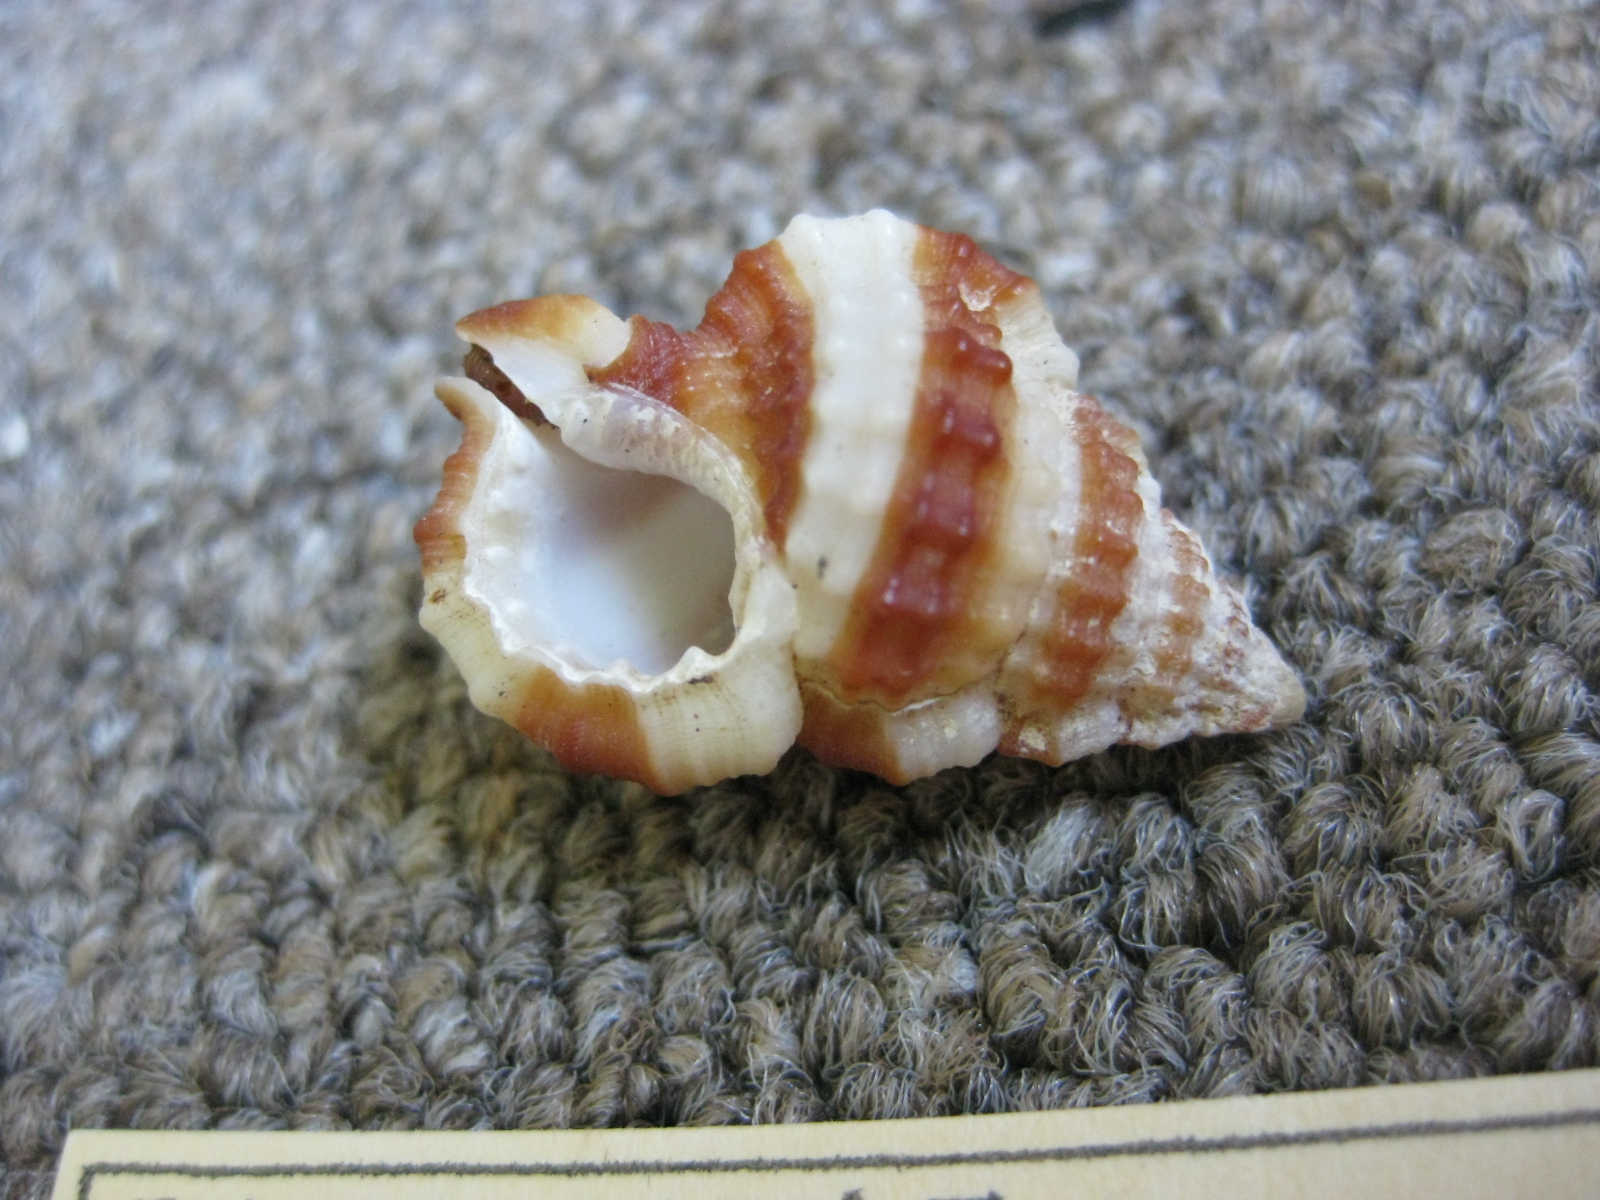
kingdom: Animalia
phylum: Mollusca
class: Gastropoda
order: Littorinimorpha
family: Cymatiidae
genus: Gyrineum
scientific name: Gyrineum gyrinum
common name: Tadpole triton
